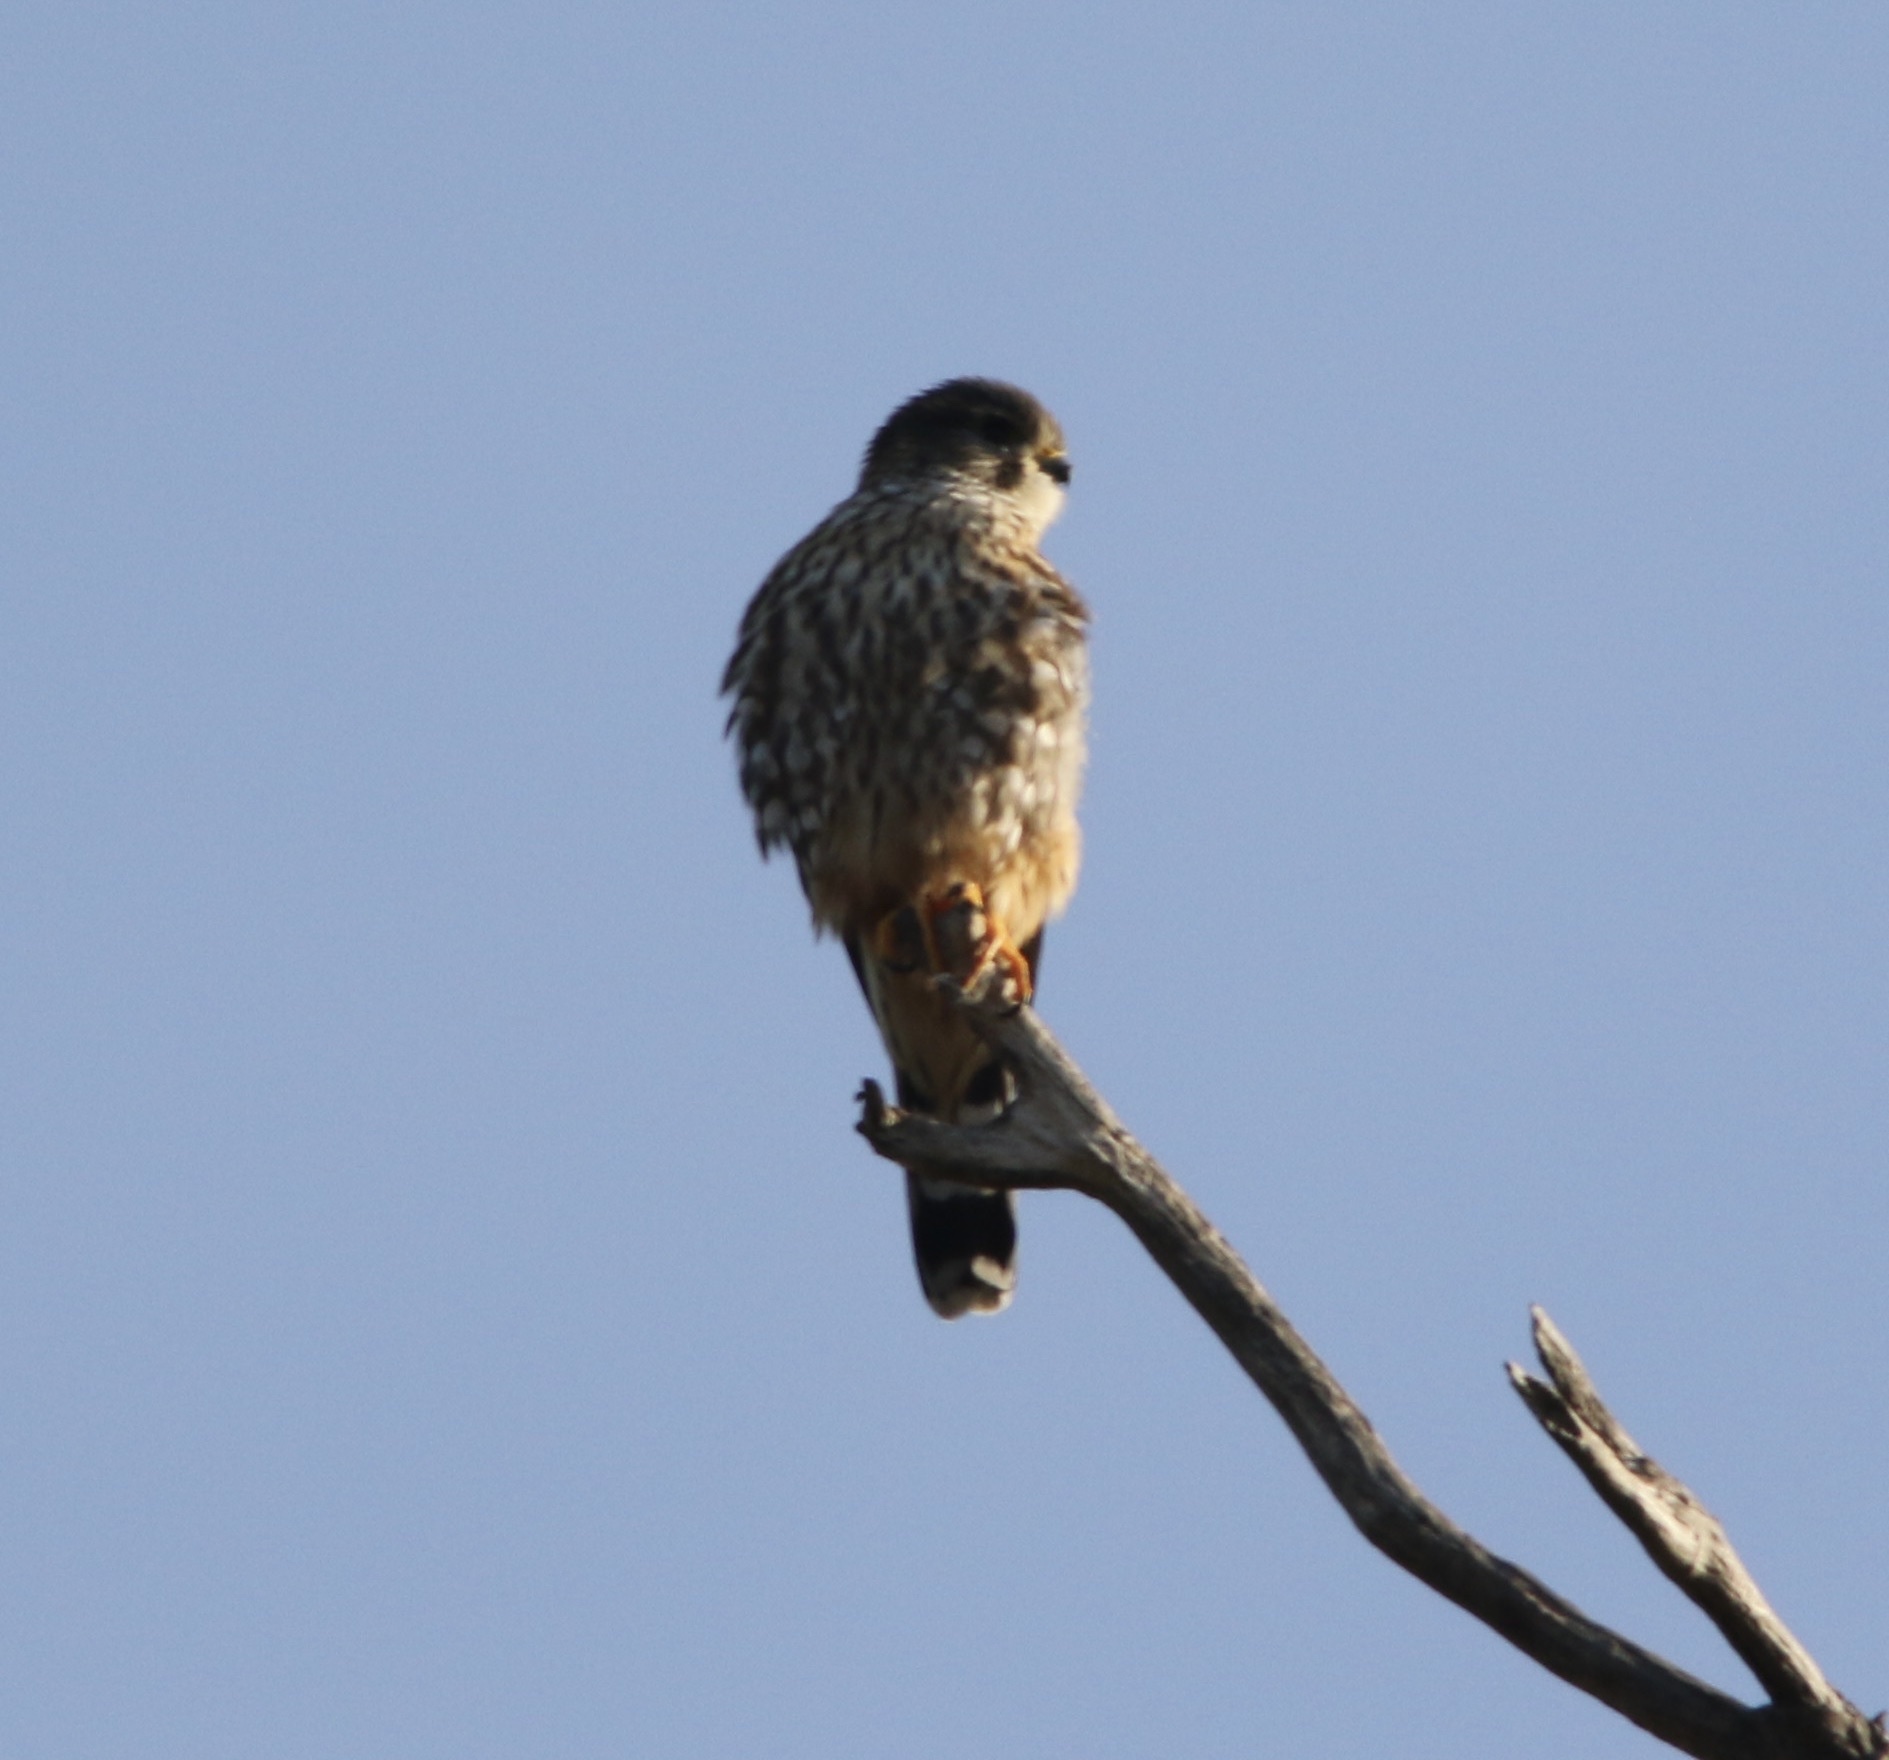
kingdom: Animalia
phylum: Chordata
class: Aves
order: Falconiformes
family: Falconidae
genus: Falco
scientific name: Falco columbarius
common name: Merlin
